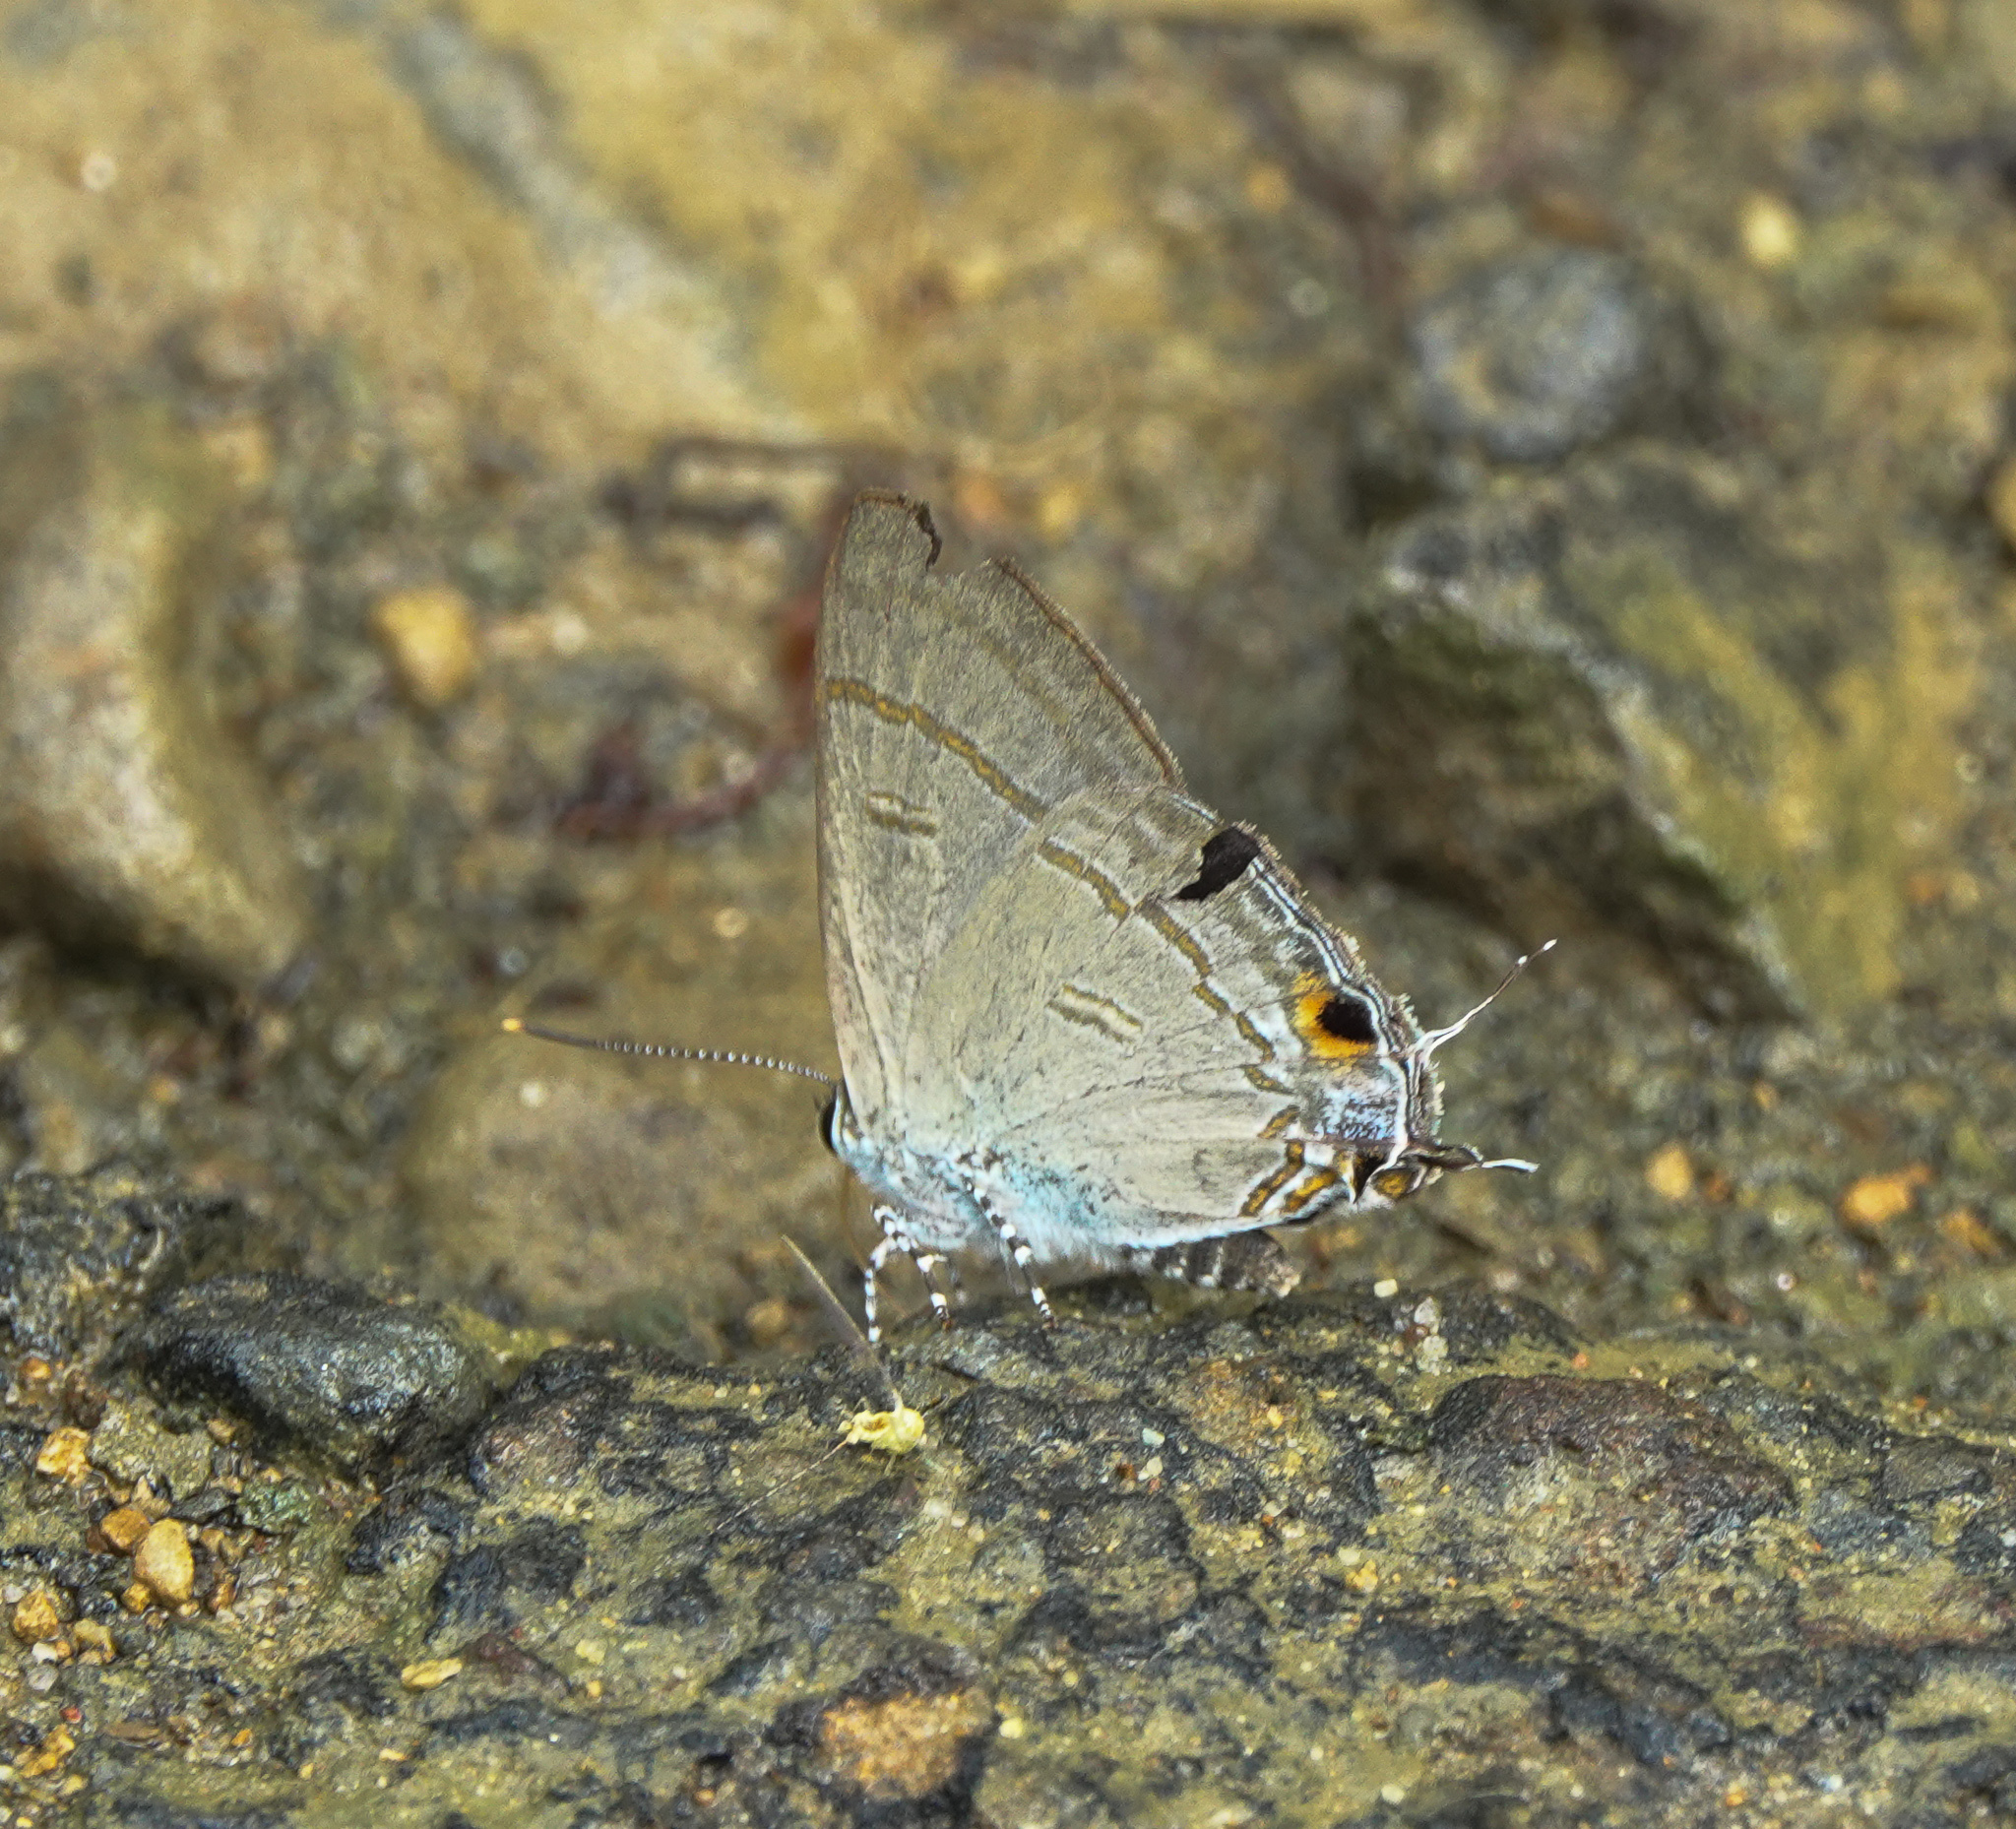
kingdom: Animalia
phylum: Arthropoda
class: Insecta
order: Lepidoptera
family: Lycaenidae
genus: Hypolycaena
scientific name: Hypolycaena erylus
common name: Common tit
